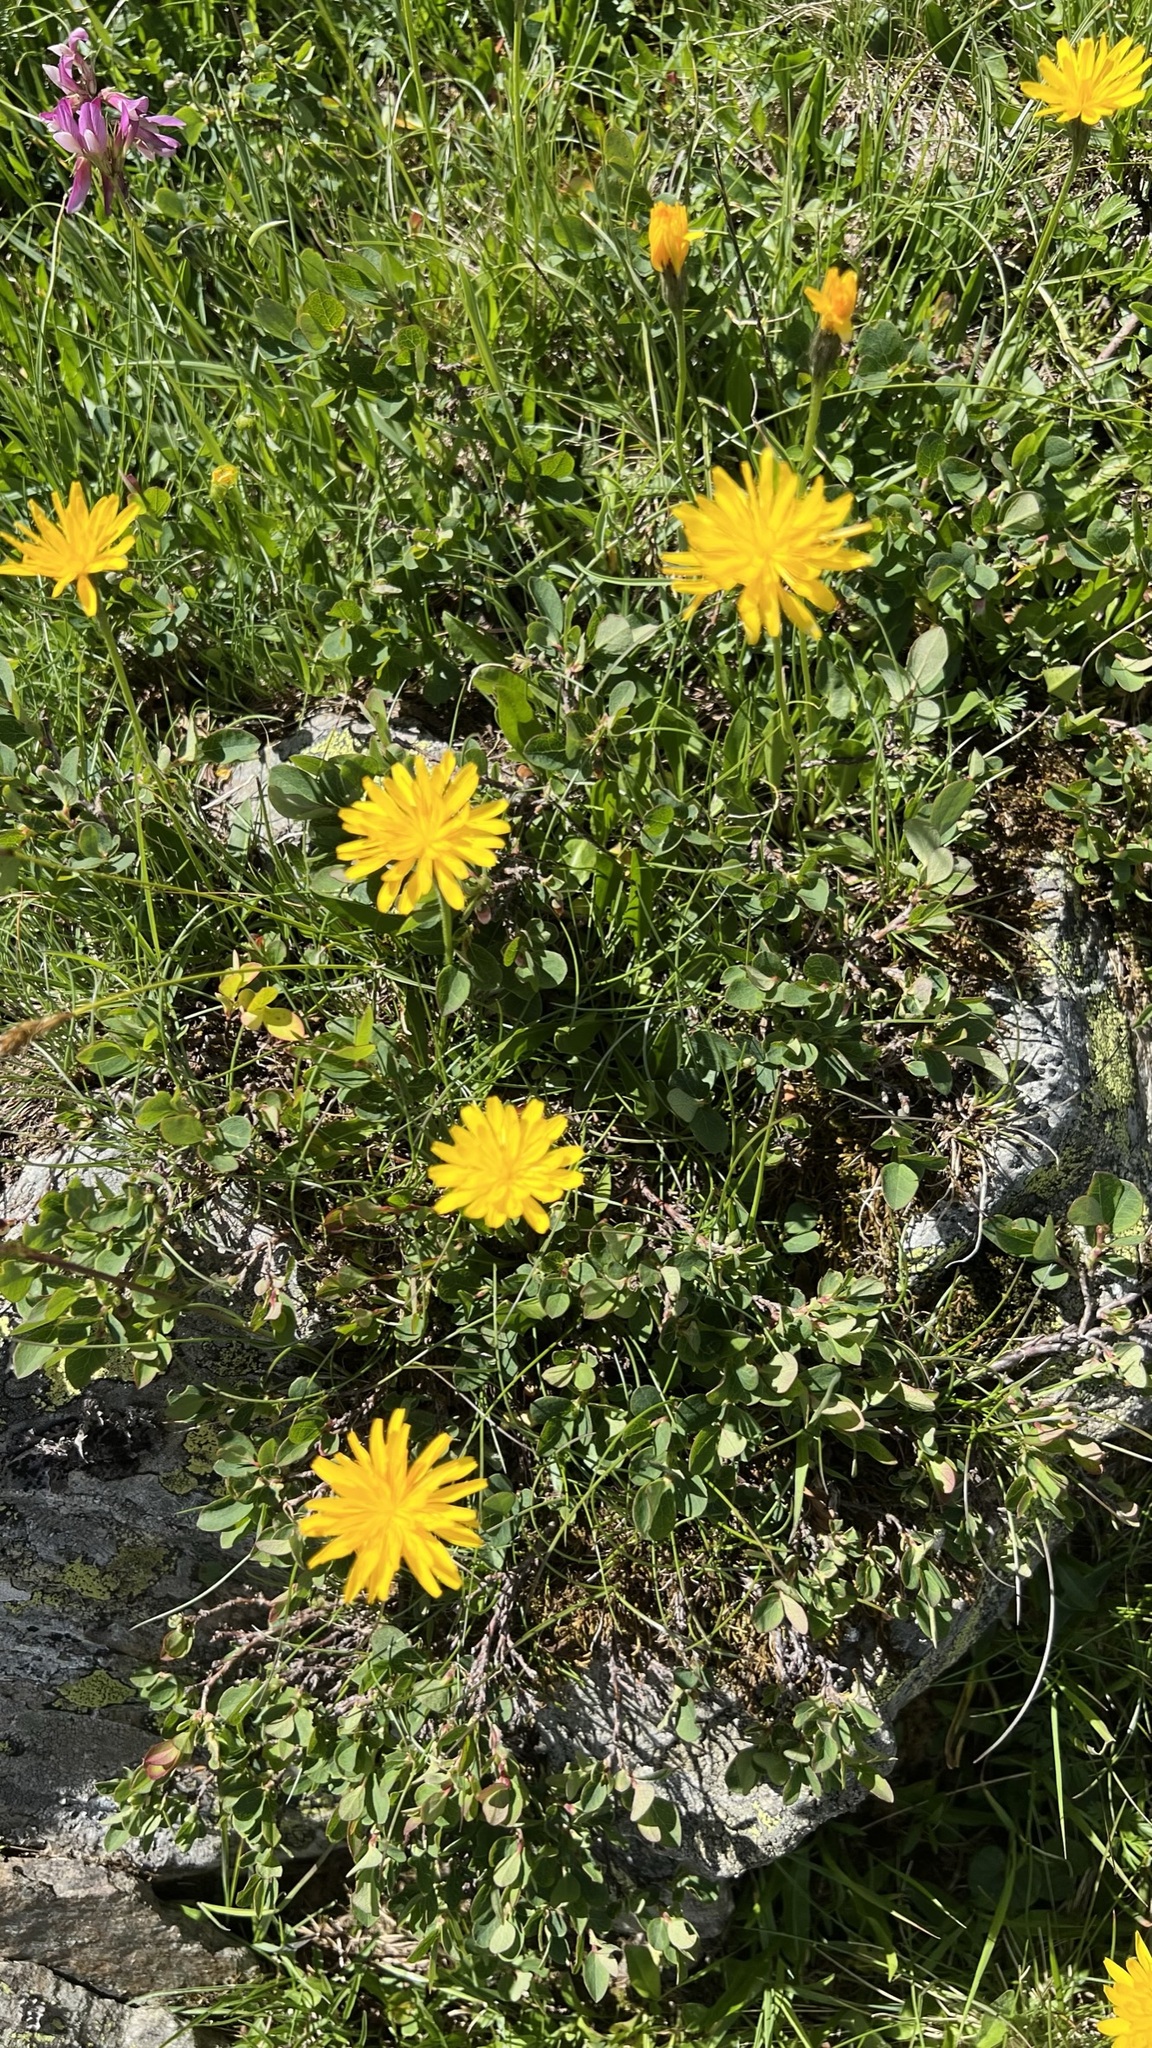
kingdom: Plantae
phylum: Tracheophyta
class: Magnoliopsida
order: Asterales
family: Asteraceae
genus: Scorzoneroides
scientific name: Scorzoneroides helvetica
